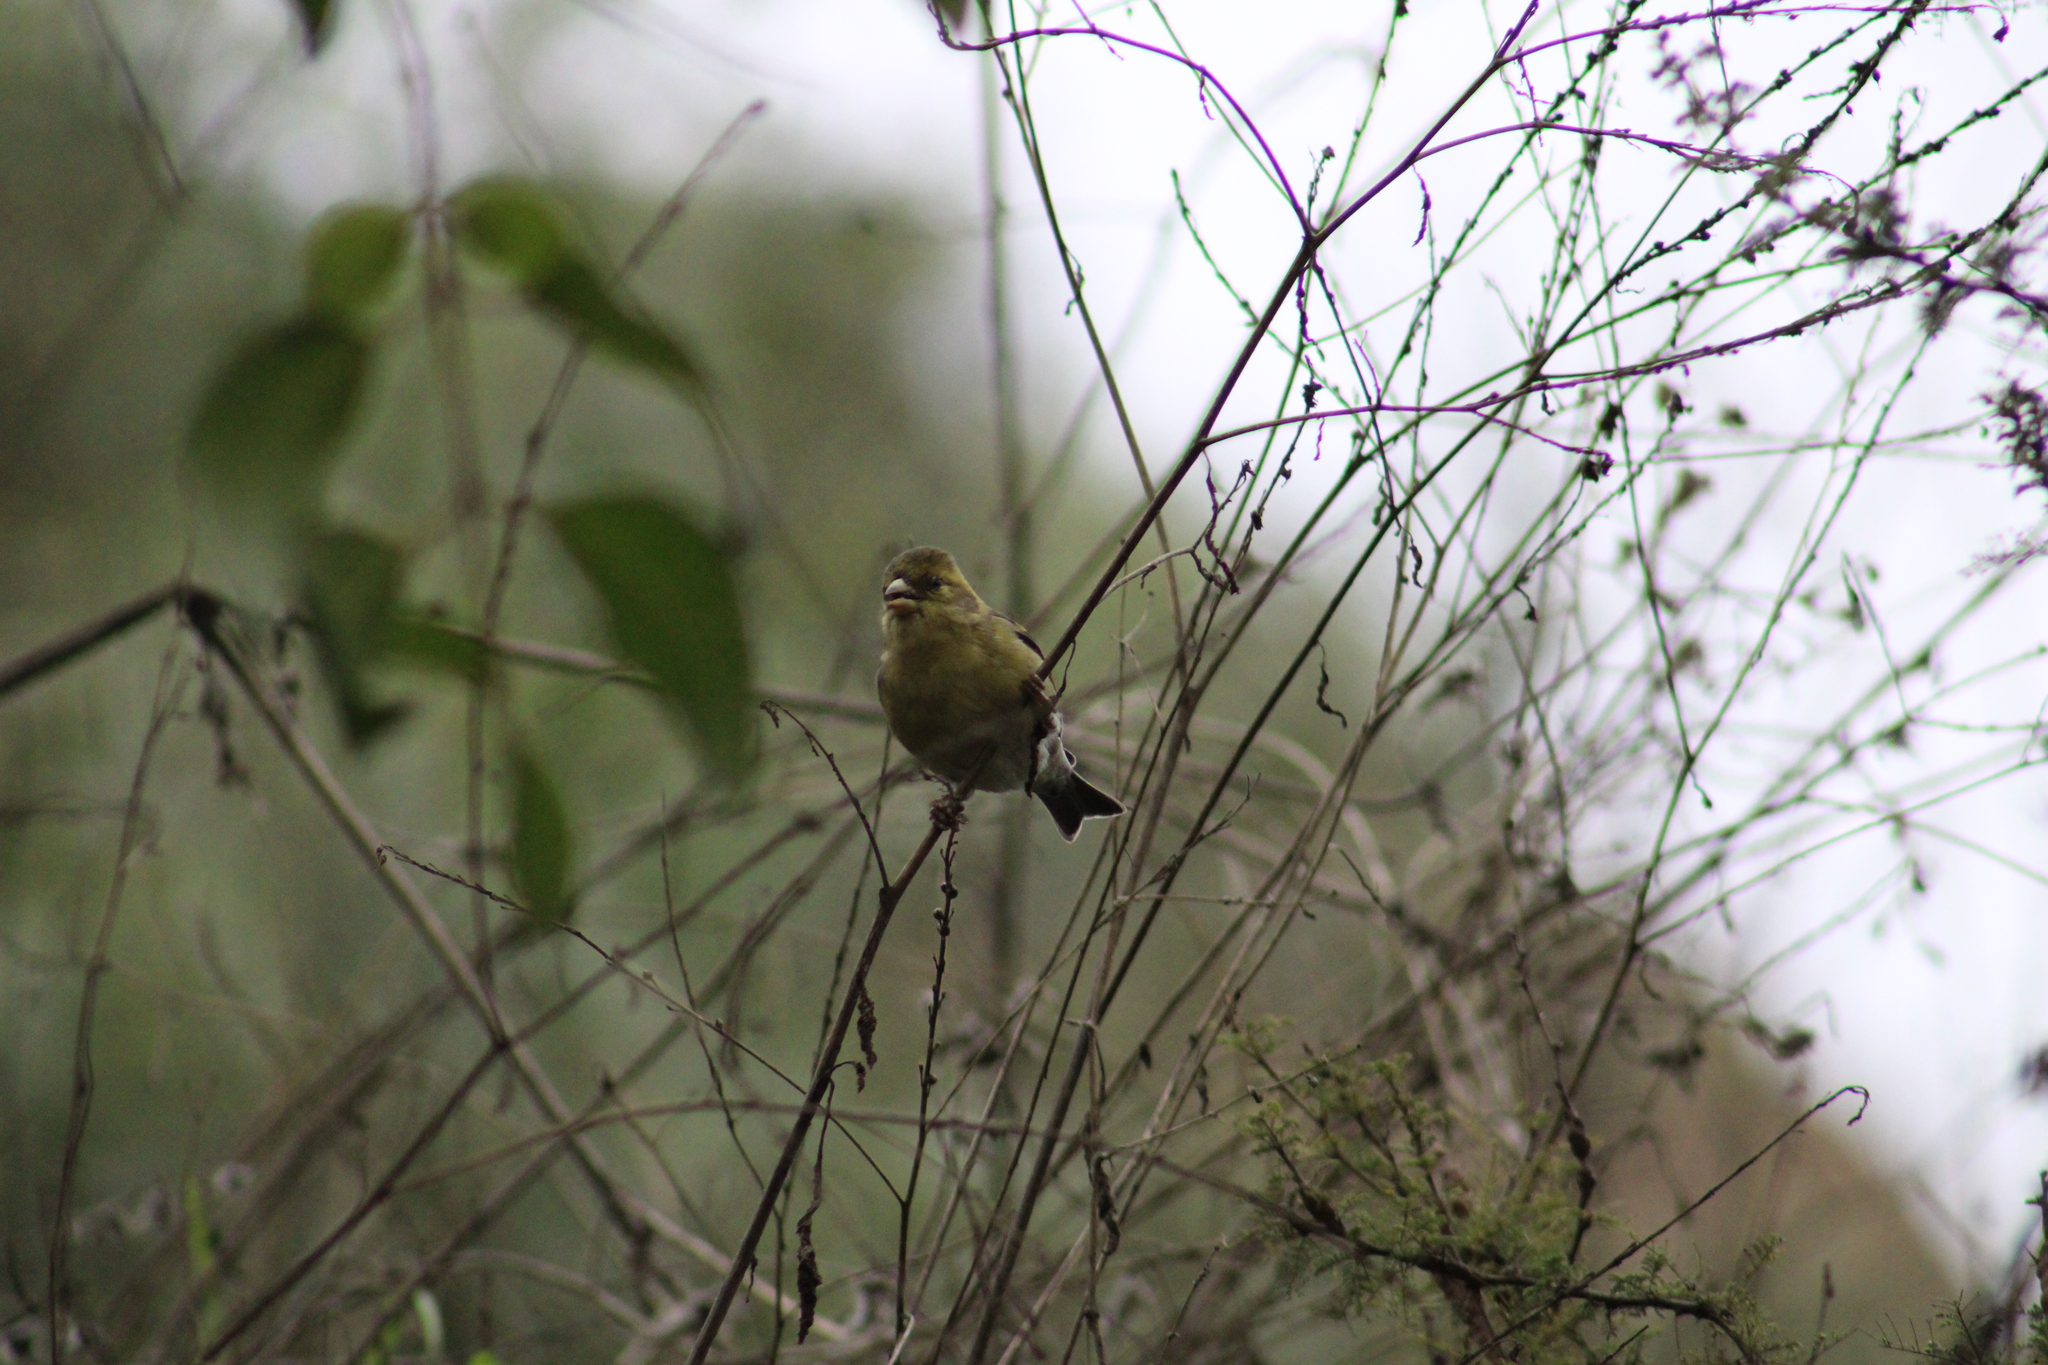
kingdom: Animalia
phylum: Chordata
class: Aves
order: Passeriformes
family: Fringillidae
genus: Spinus
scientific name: Spinus barbatus
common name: Black-chinned siskin
